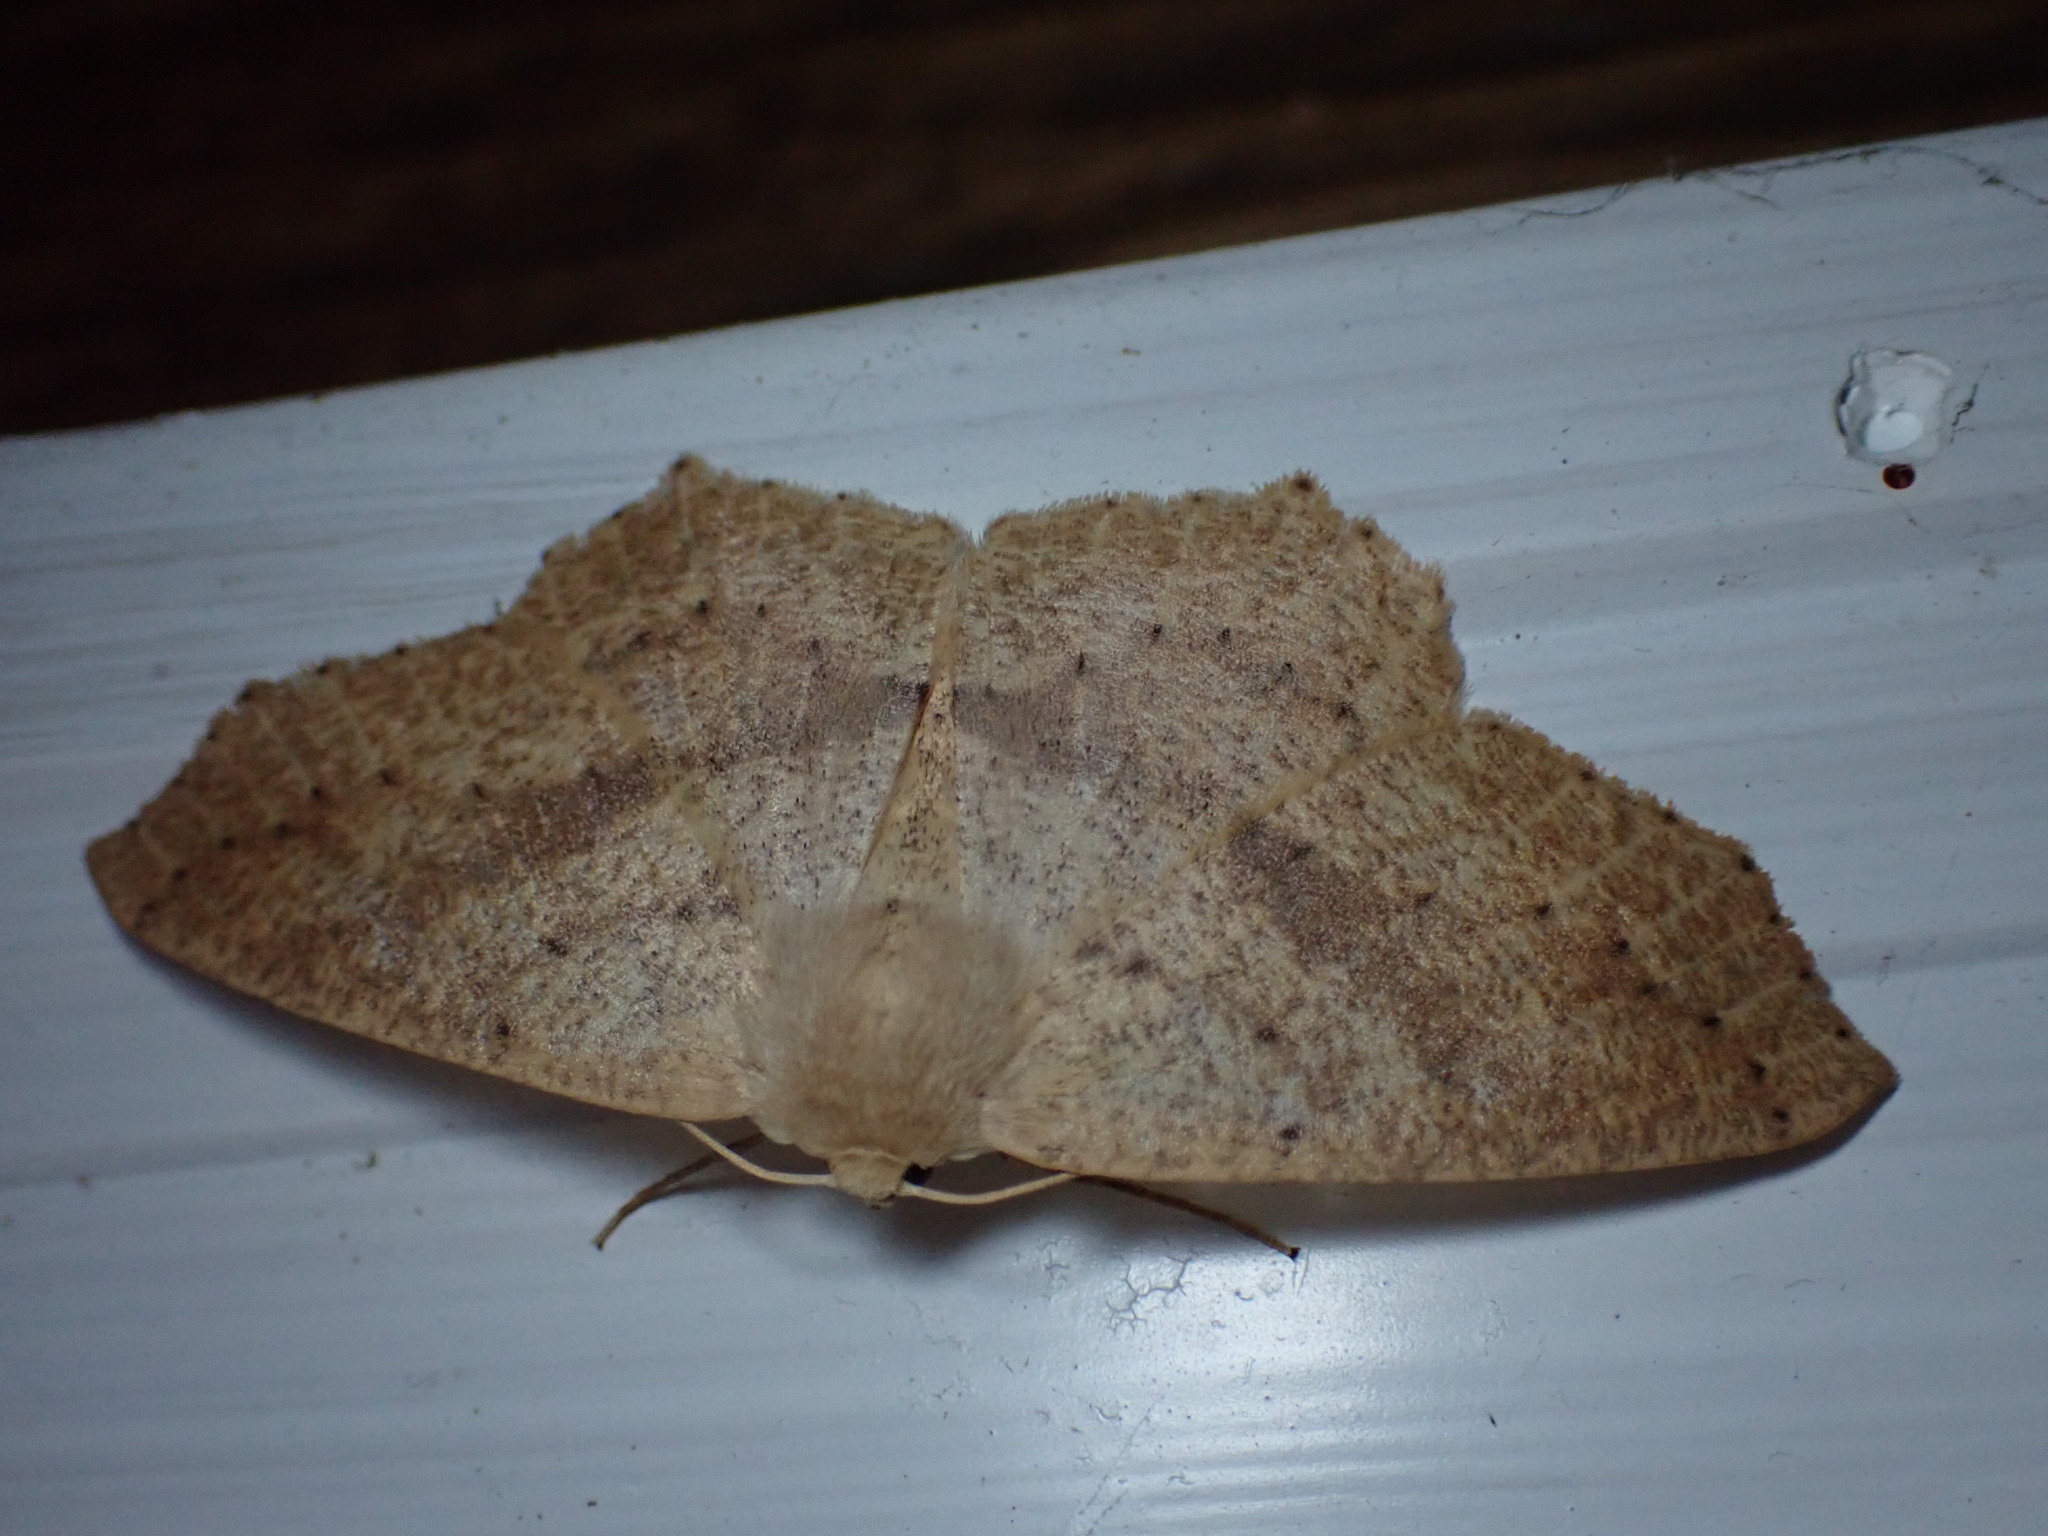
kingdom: Animalia
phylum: Arthropoda
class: Insecta
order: Lepidoptera
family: Geometridae
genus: Sabulodes
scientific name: Sabulodes aegrotata
